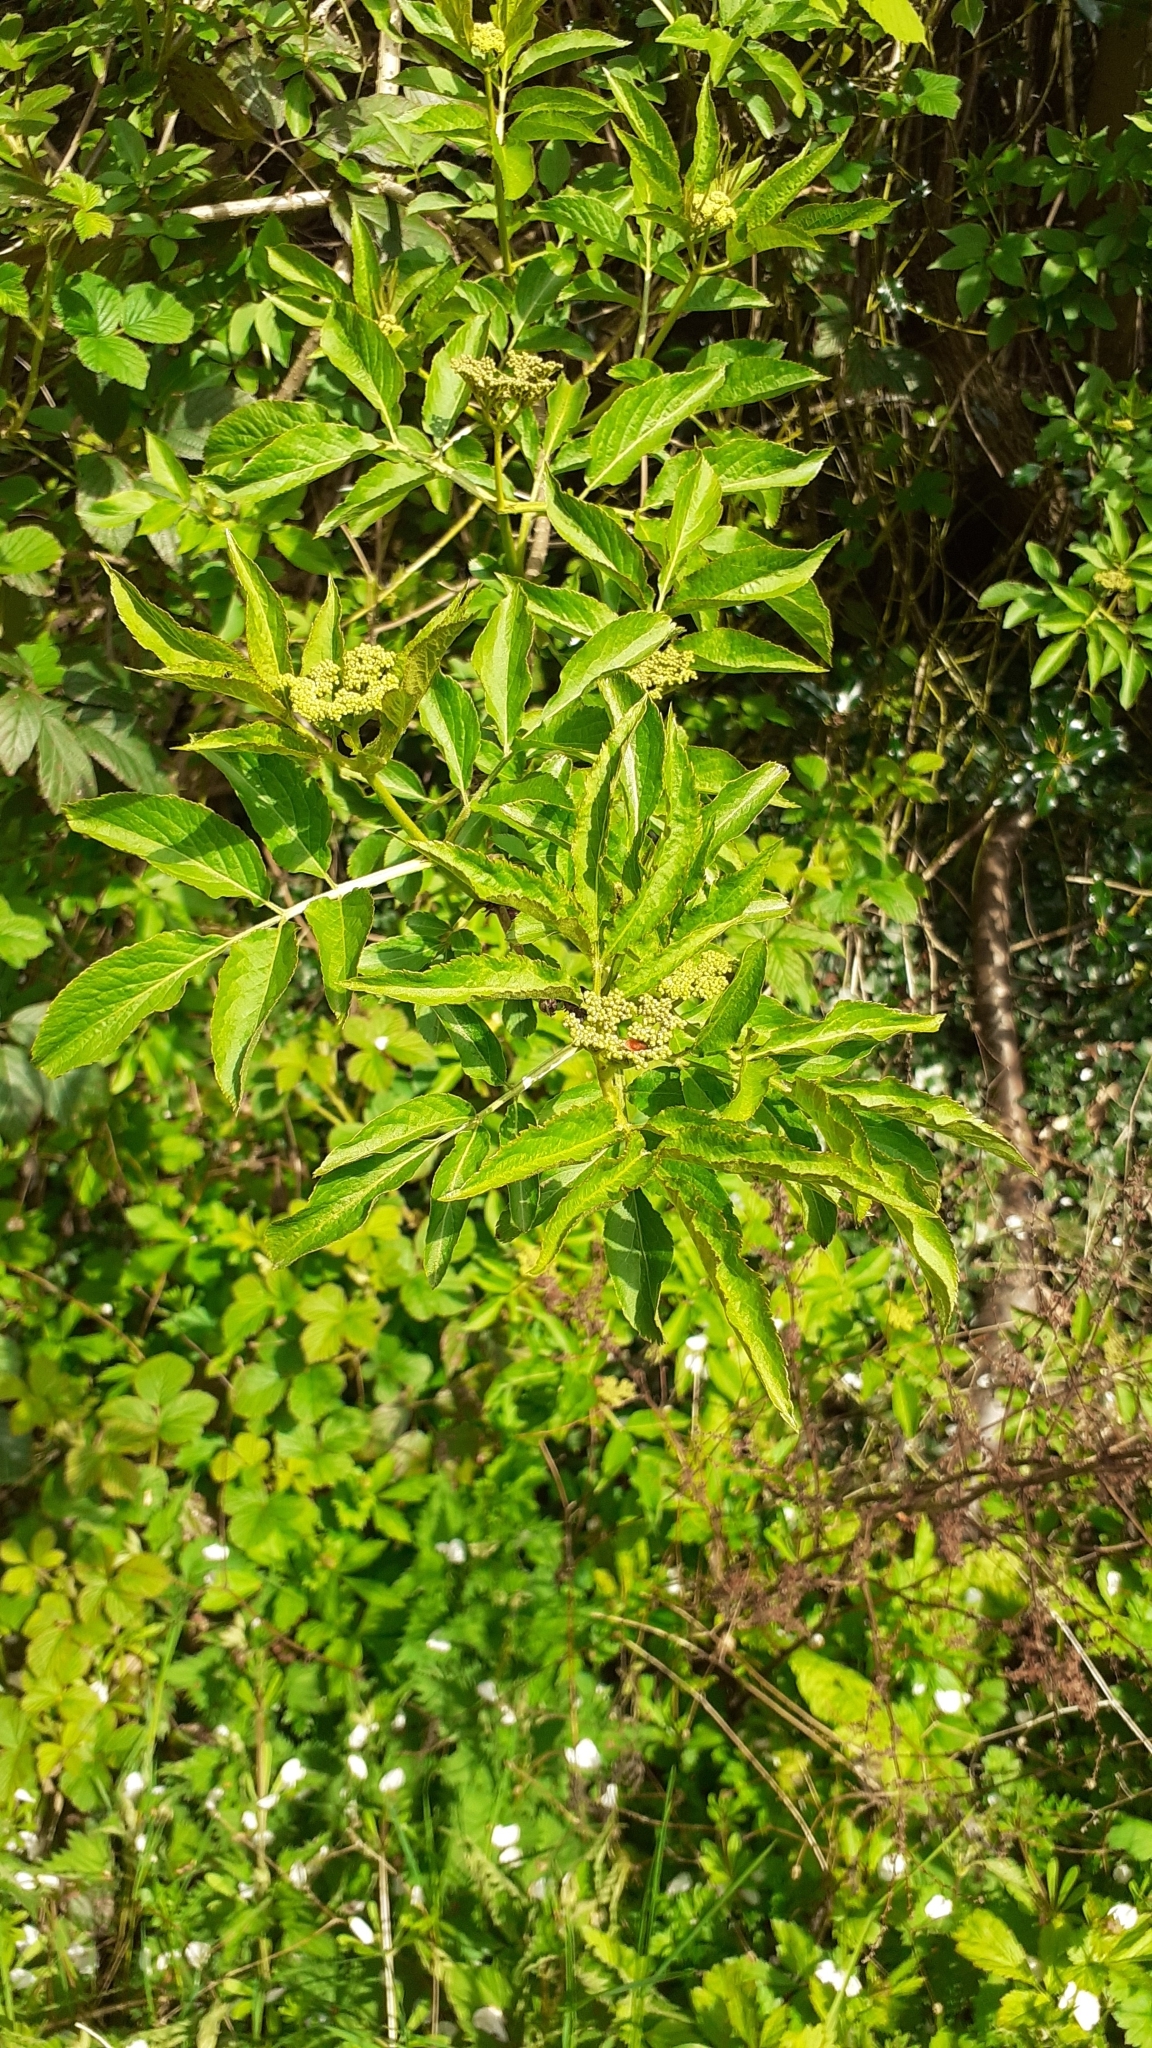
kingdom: Plantae
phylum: Tracheophyta
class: Magnoliopsida
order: Dipsacales
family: Viburnaceae
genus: Sambucus
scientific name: Sambucus nigra
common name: Elder
